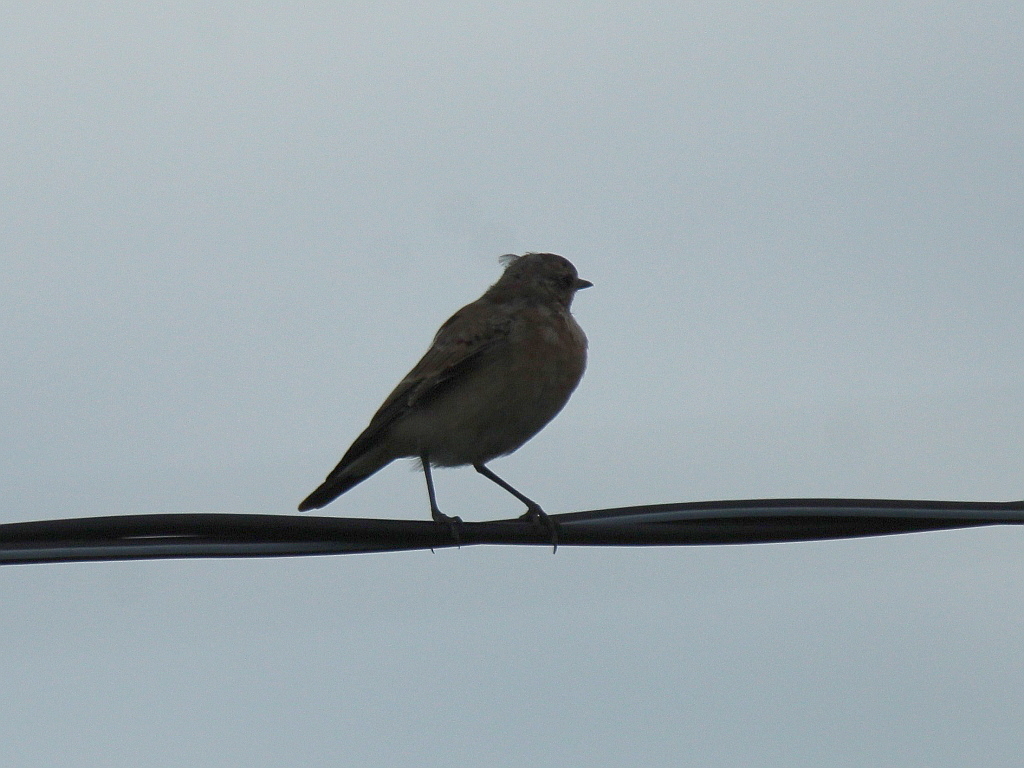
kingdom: Animalia
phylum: Chordata
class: Aves
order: Passeriformes
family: Muscicapidae
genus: Oenanthe
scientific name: Oenanthe oenanthe
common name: Northern wheatear
